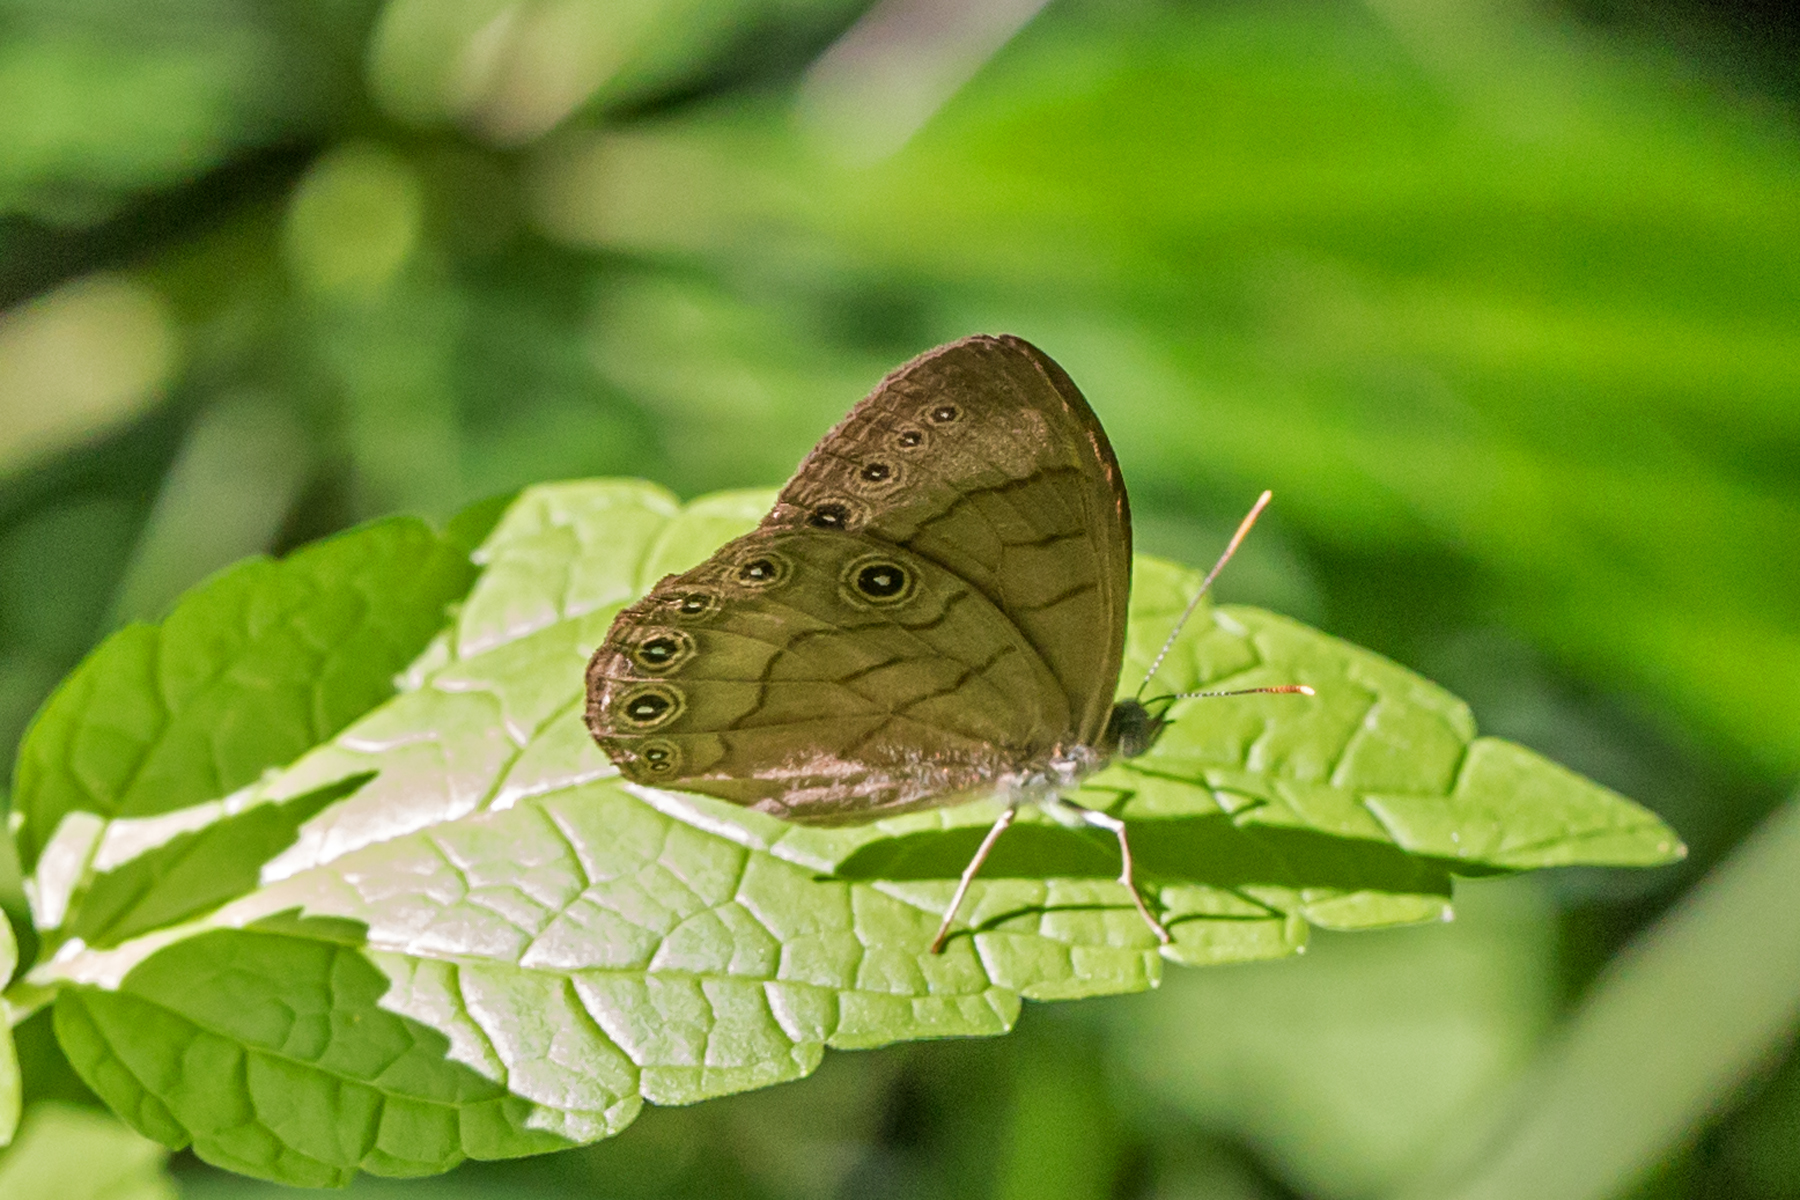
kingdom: Animalia
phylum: Arthropoda
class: Insecta
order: Lepidoptera
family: Nymphalidae
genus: Lethe
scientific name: Lethe eurydice
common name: Eyed brown
